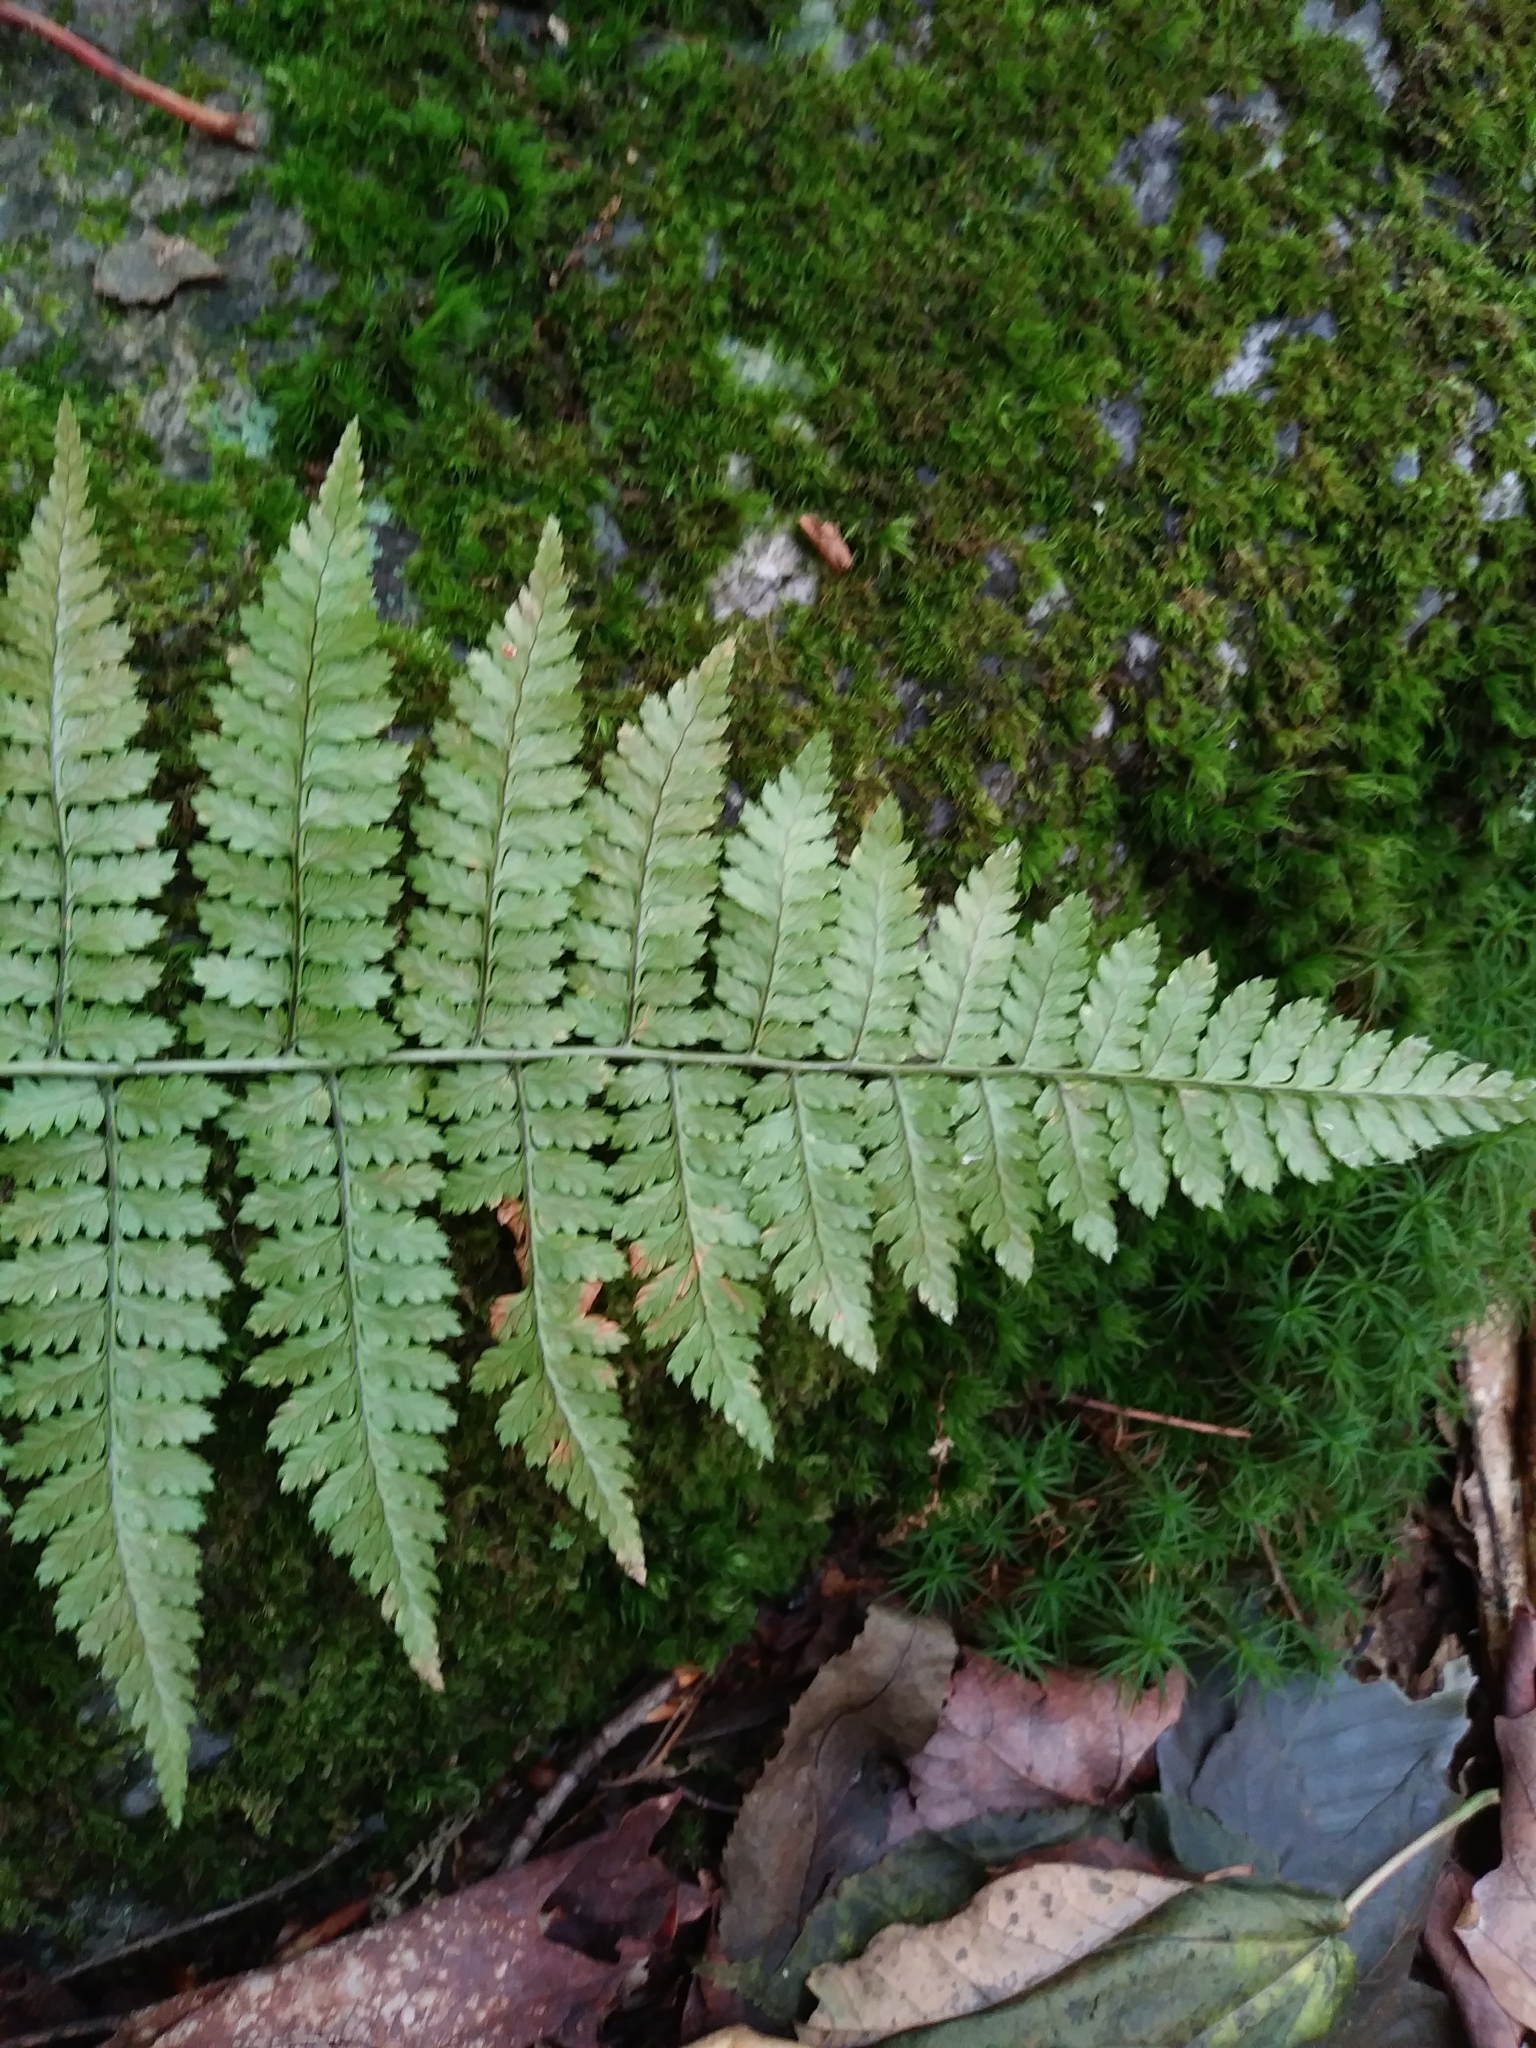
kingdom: Plantae
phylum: Tracheophyta
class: Polypodiopsida
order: Polypodiales
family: Dryopteridaceae
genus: Dryopteris
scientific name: Dryopteris intermedia
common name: Evergreen wood fern
